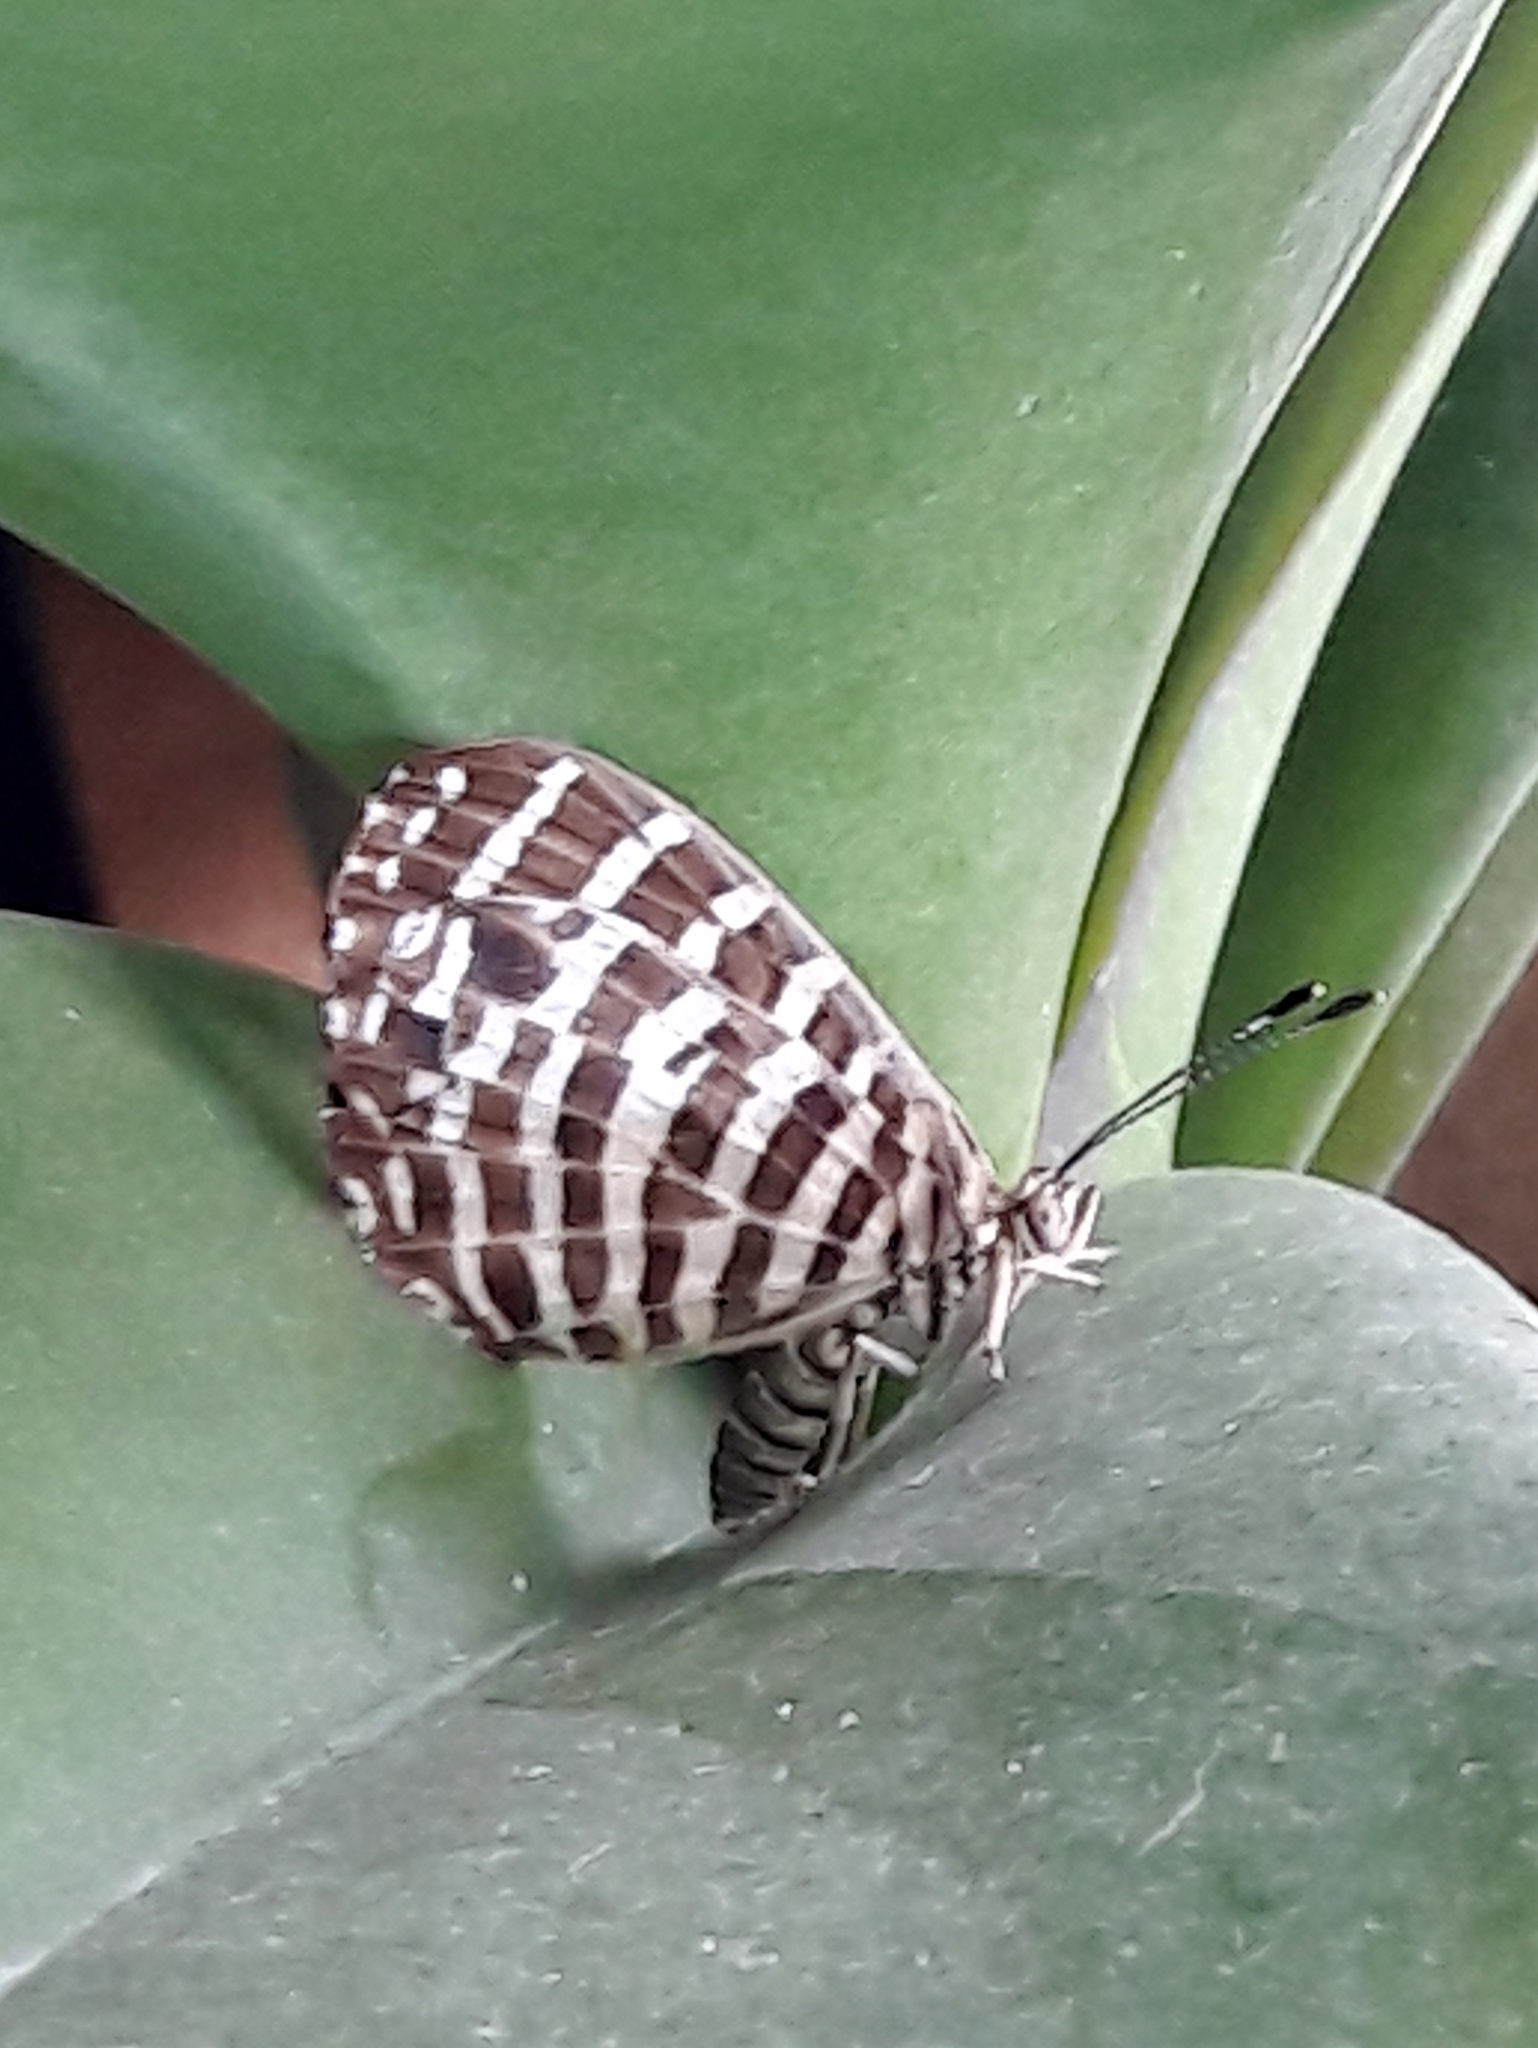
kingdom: Animalia
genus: Hyphilaria
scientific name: Hyphilaria thasus
